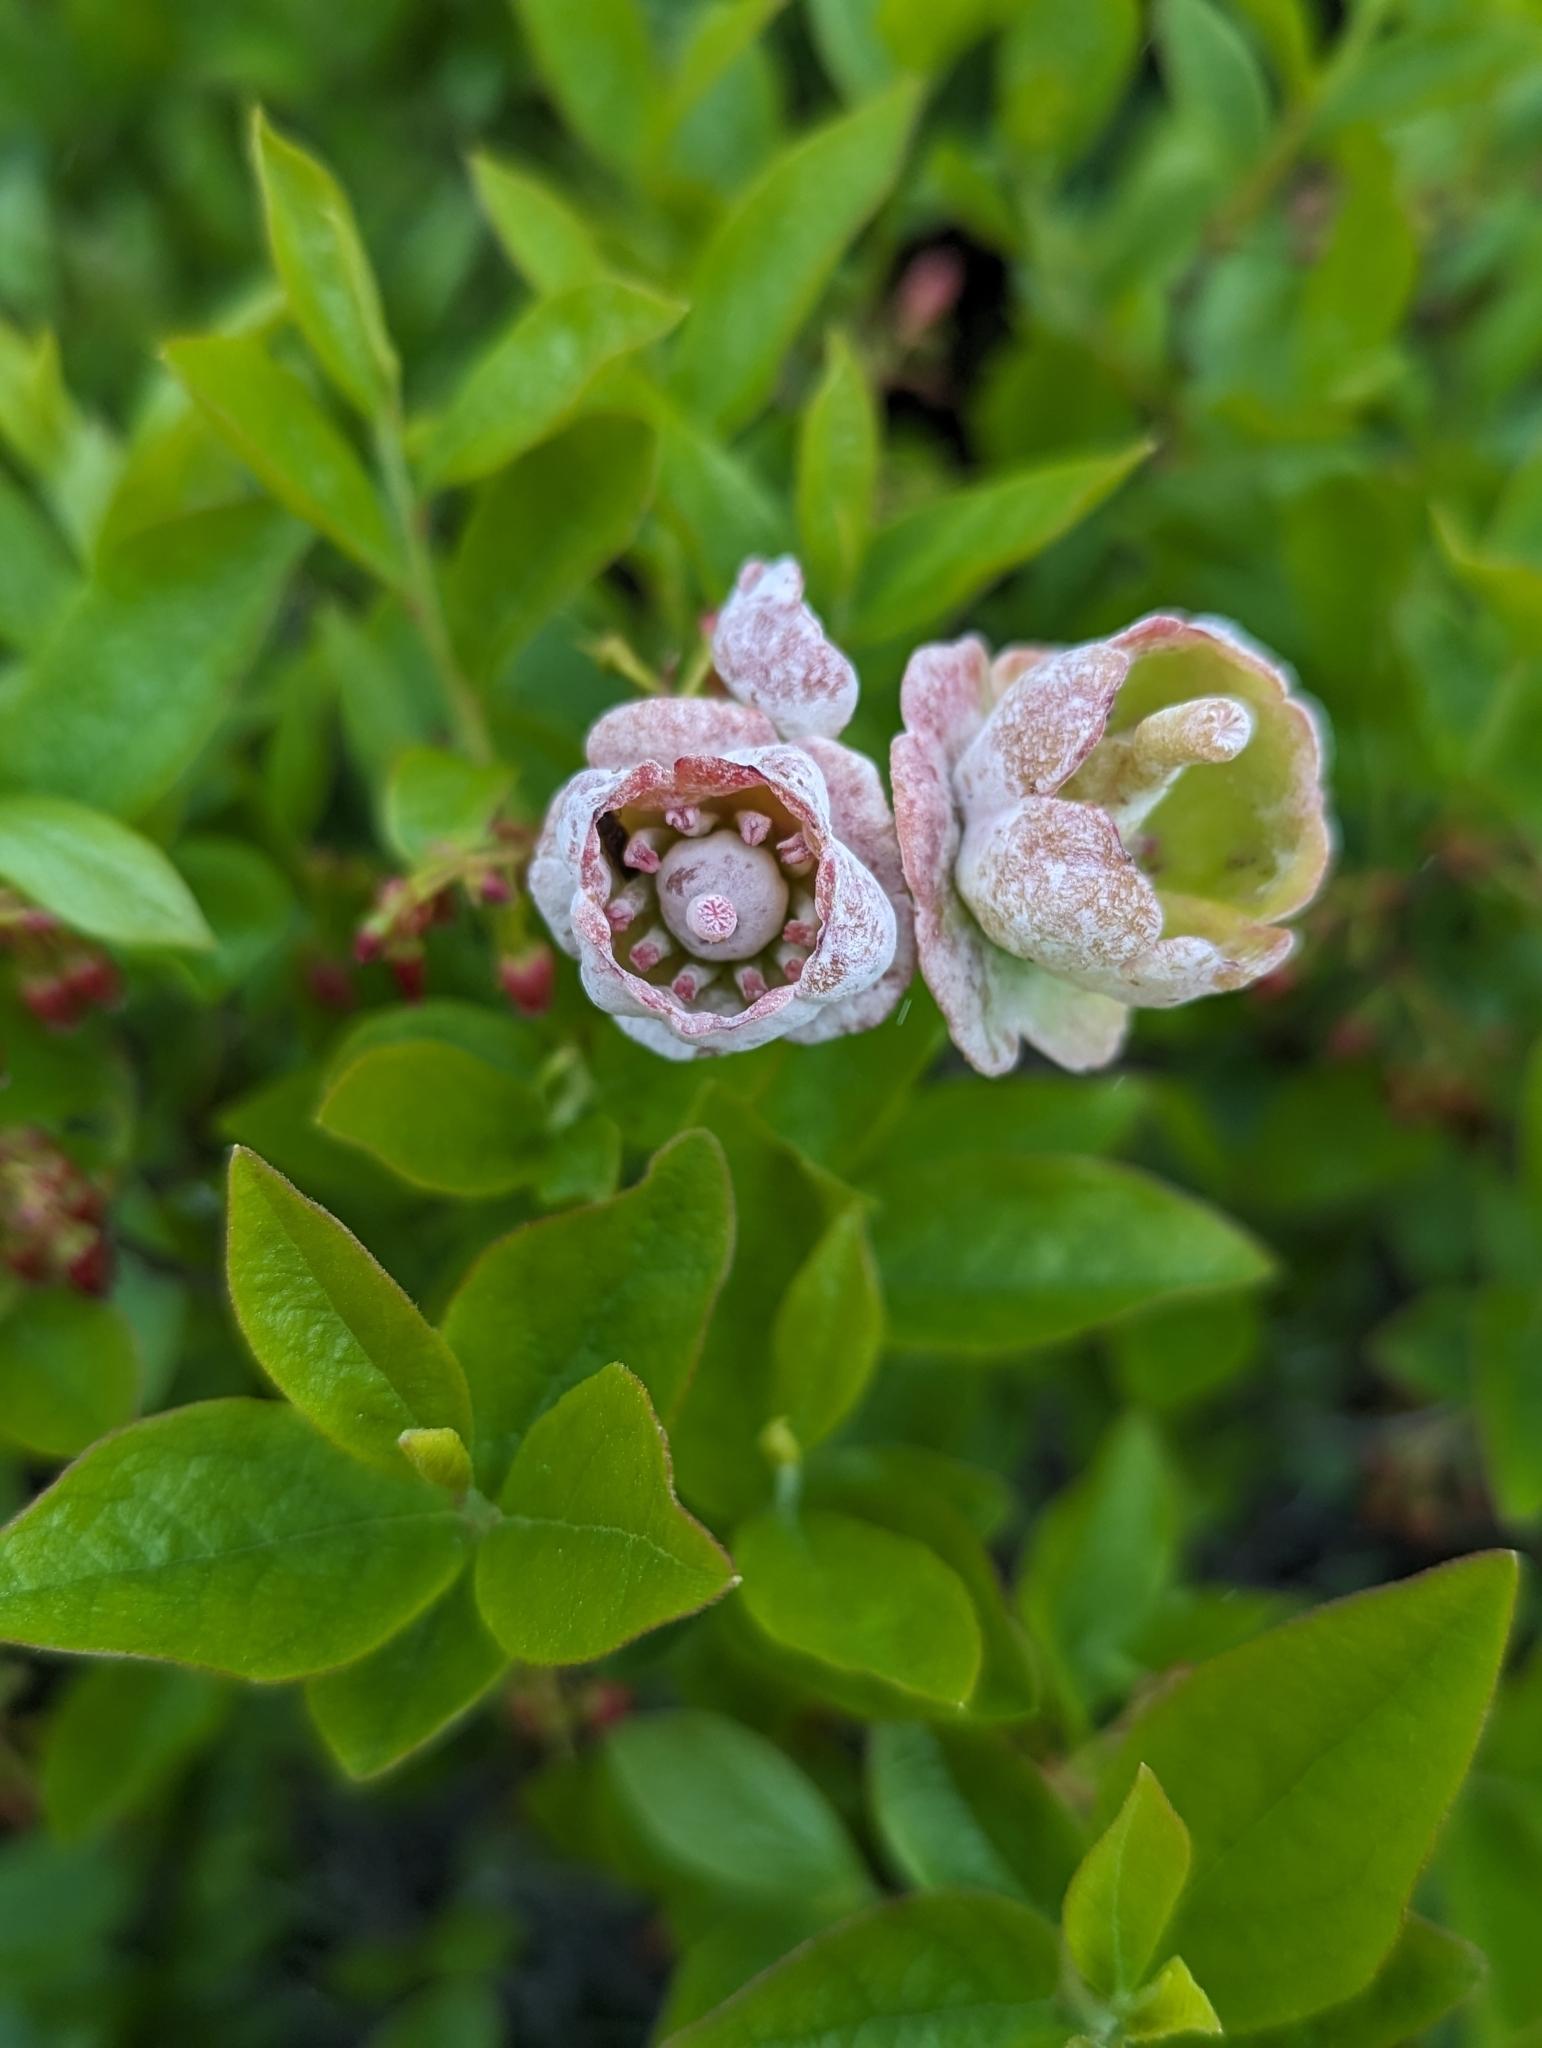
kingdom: Plantae
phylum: Tracheophyta
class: Magnoliopsida
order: Ericales
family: Ericaceae
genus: Gaylussacia
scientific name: Gaylussacia baccata
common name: Black huckleberry
